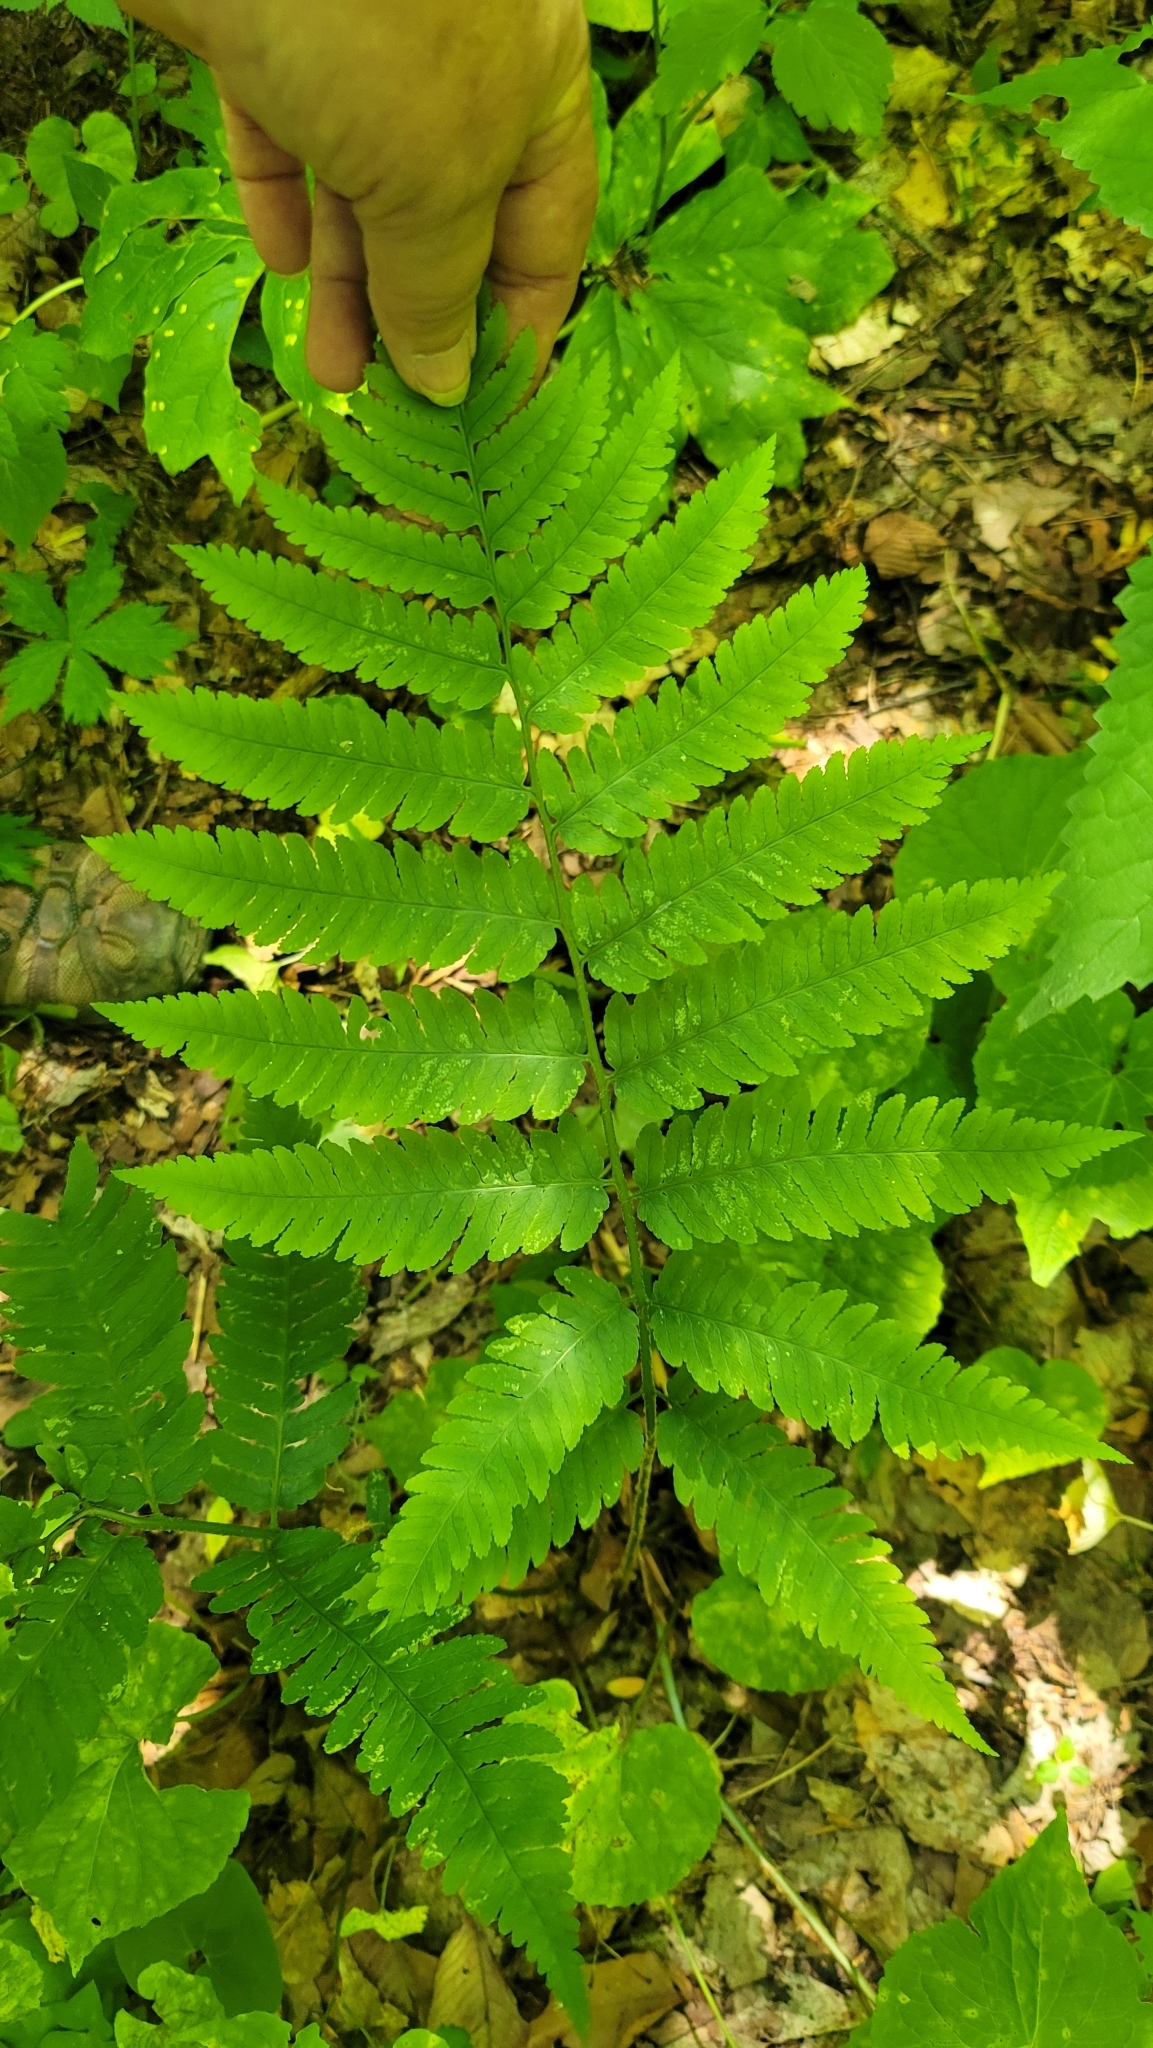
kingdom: Plantae
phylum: Tracheophyta
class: Polypodiopsida
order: Polypodiales
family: Dryopteridaceae
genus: Dryopteris
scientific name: Dryopteris goldieana
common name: Goldie's fern
